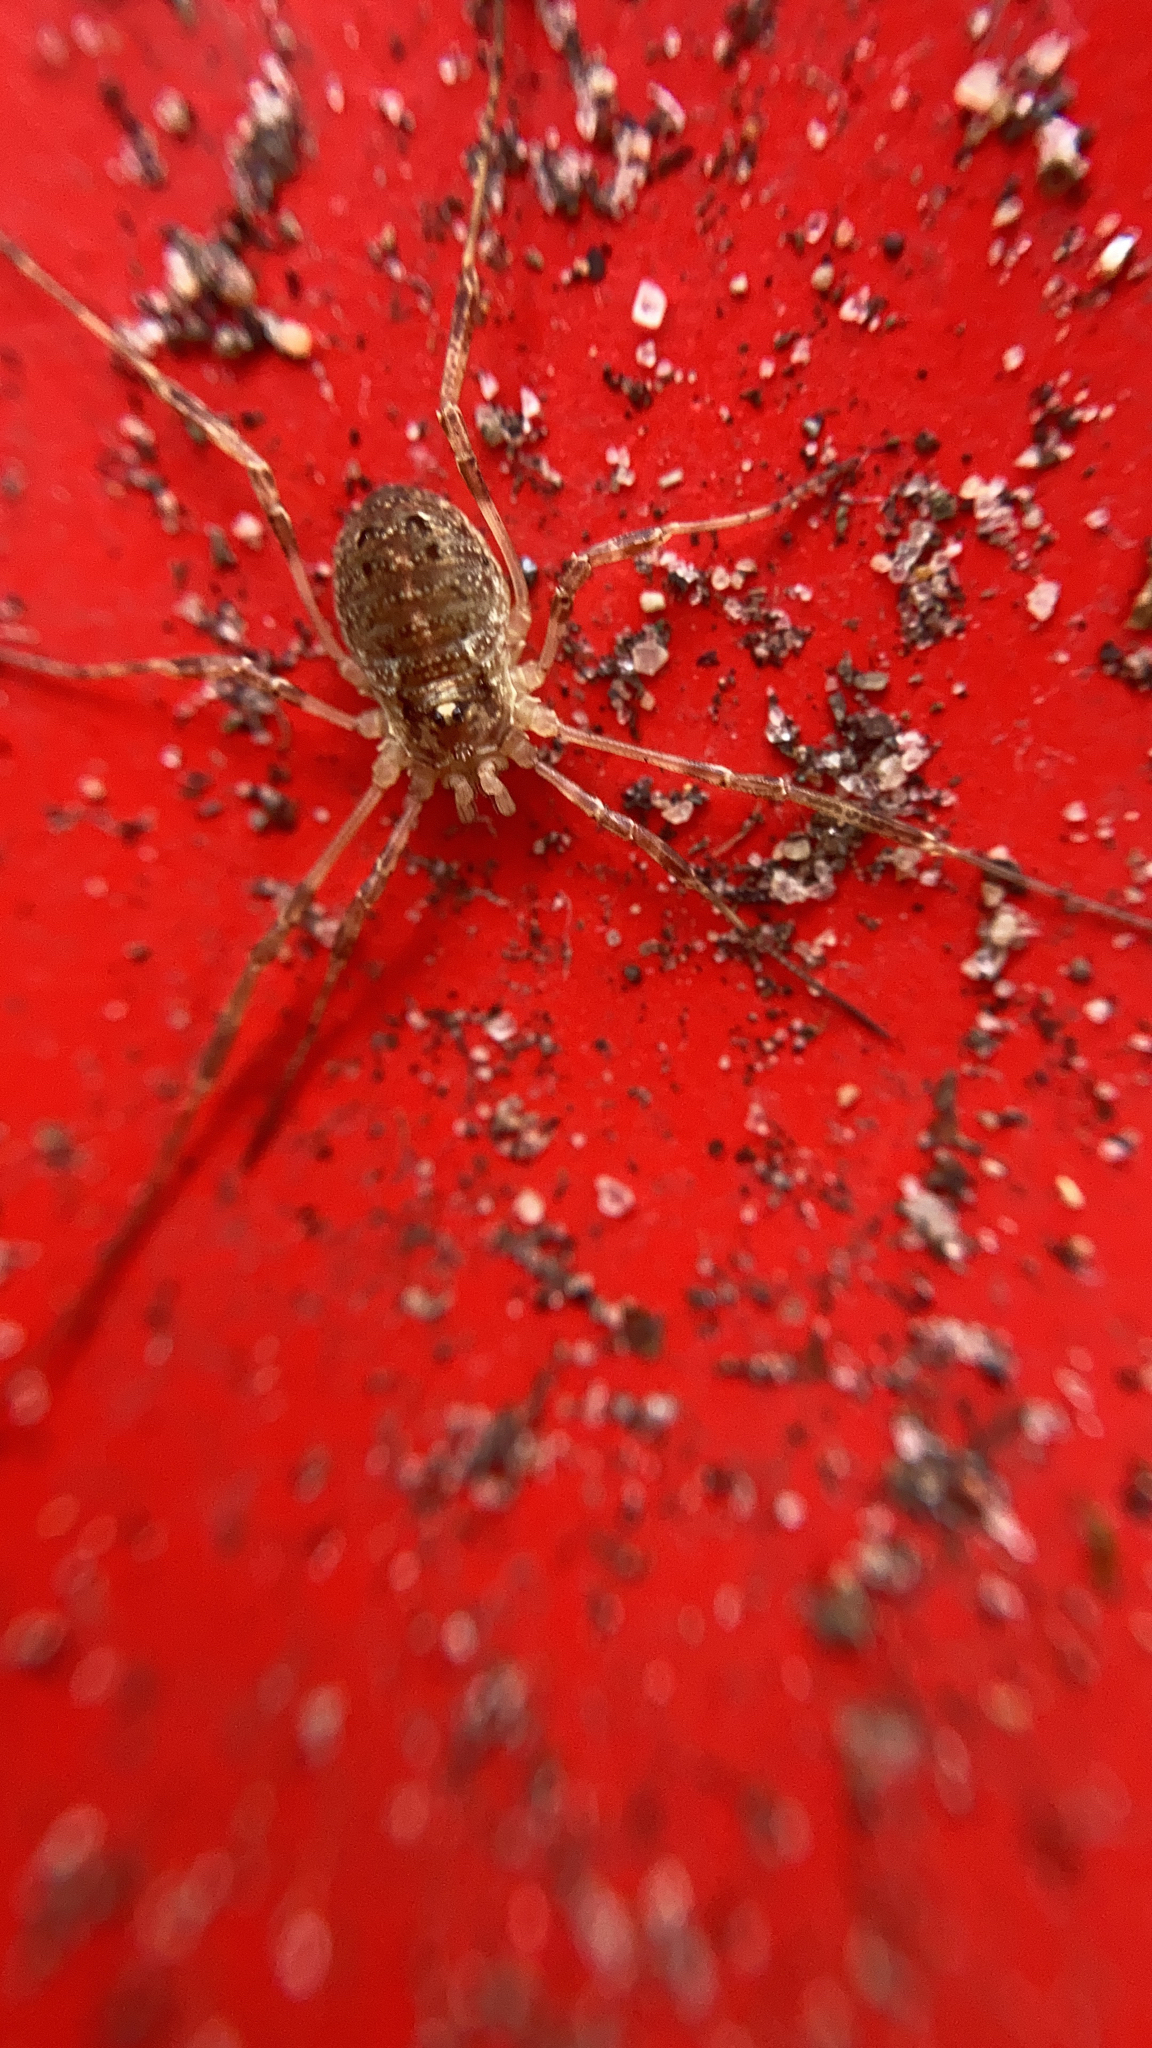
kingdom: Animalia
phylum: Arthropoda
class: Arachnida
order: Opiliones
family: Phalangiidae
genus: Paroligolophus
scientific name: Paroligolophus agrestis
